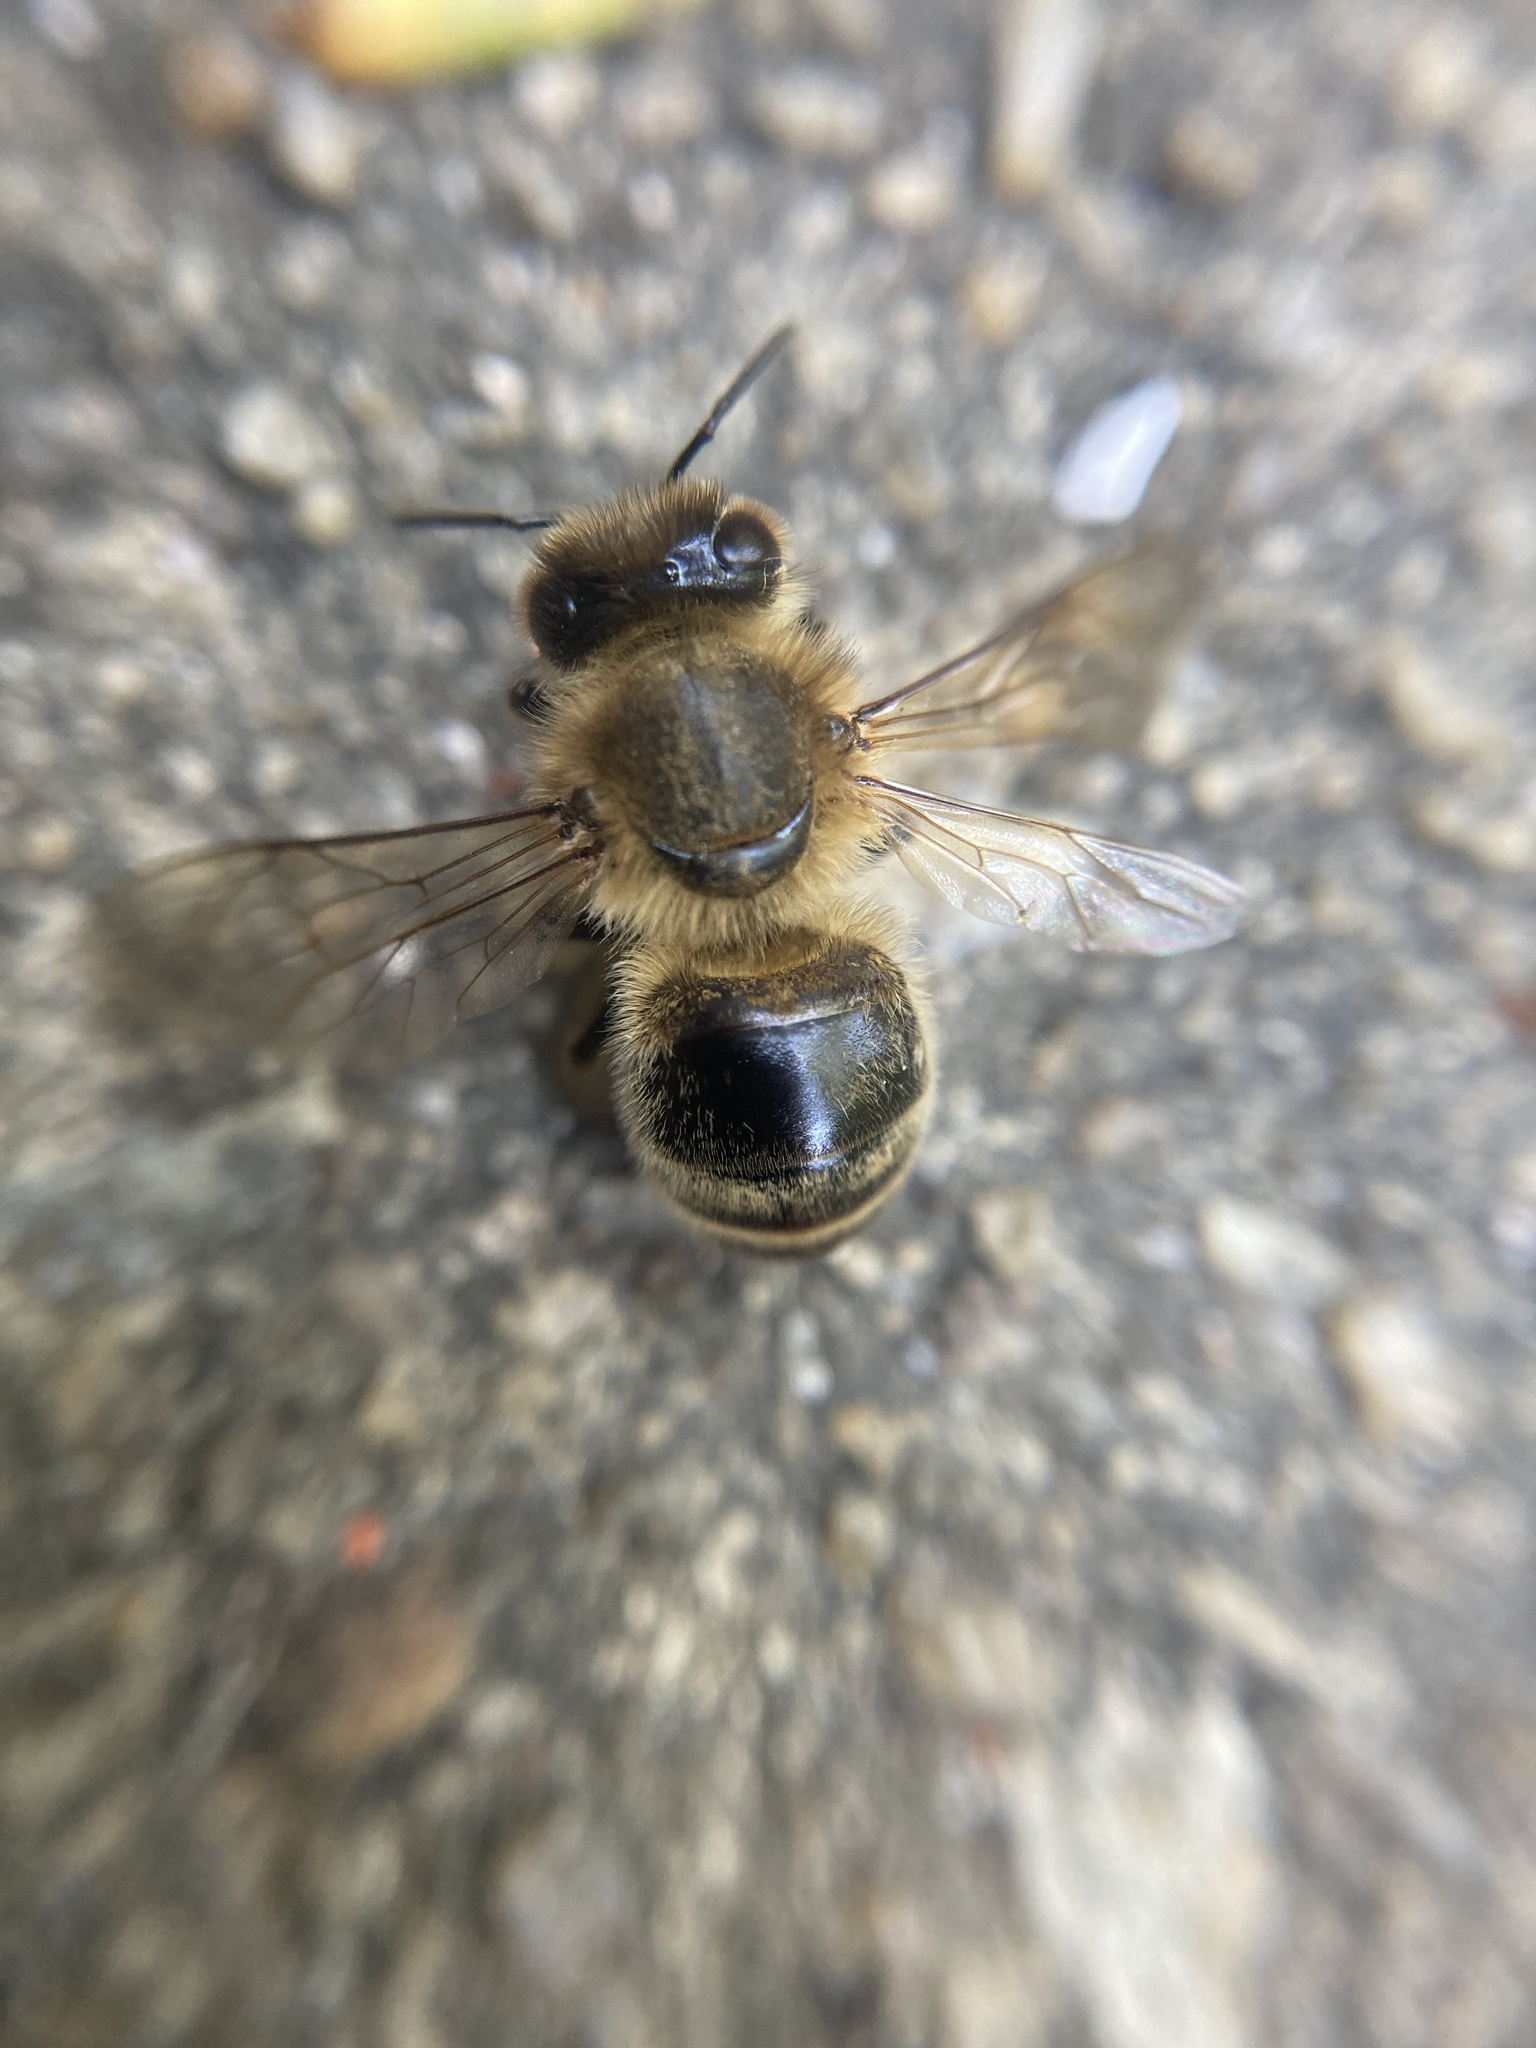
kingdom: Animalia
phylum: Arthropoda
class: Insecta
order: Hymenoptera
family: Apidae
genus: Apis
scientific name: Apis mellifera
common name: Honey bee
